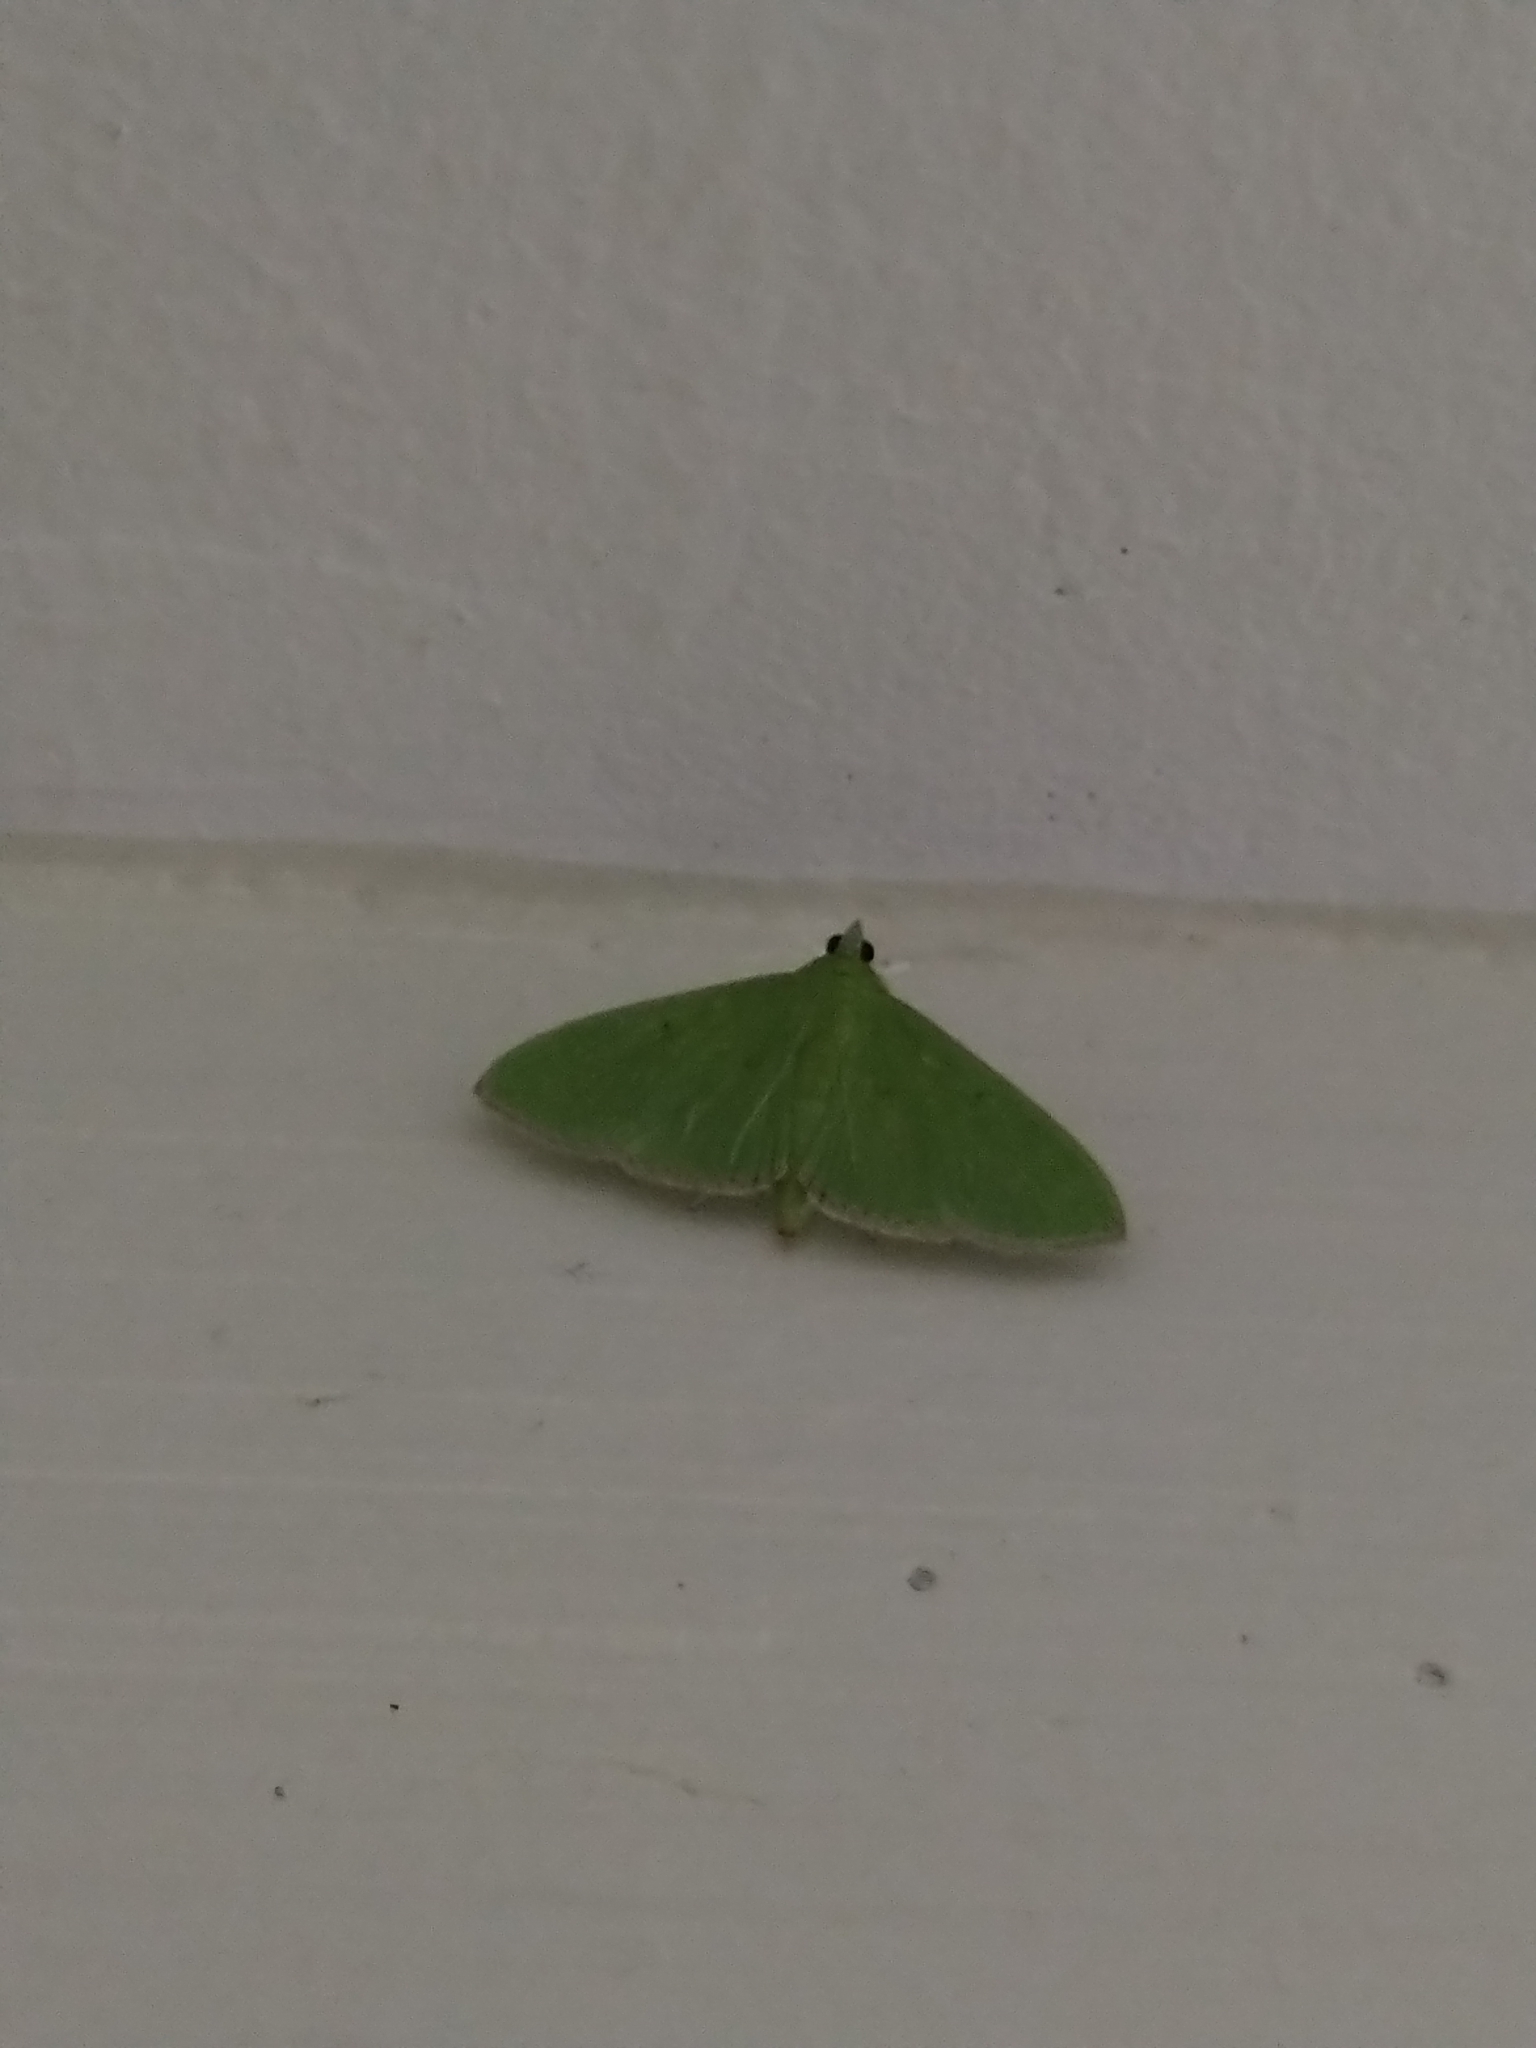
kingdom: Animalia
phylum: Arthropoda
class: Insecta
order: Lepidoptera
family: Crambidae
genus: Parotis
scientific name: Parotis
